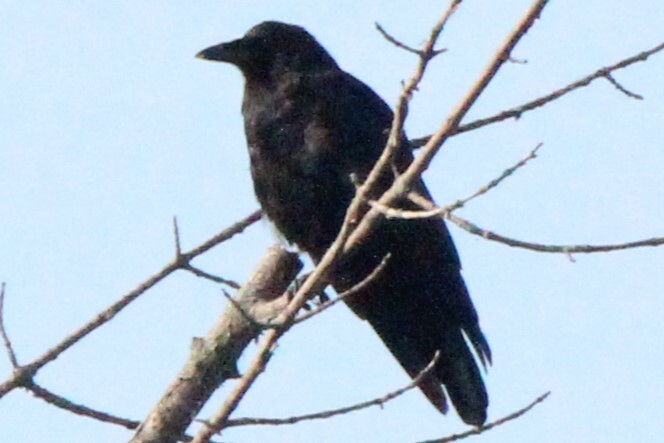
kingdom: Animalia
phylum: Chordata
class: Aves
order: Passeriformes
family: Corvidae
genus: Corvus
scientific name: Corvus corax
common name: Common raven
